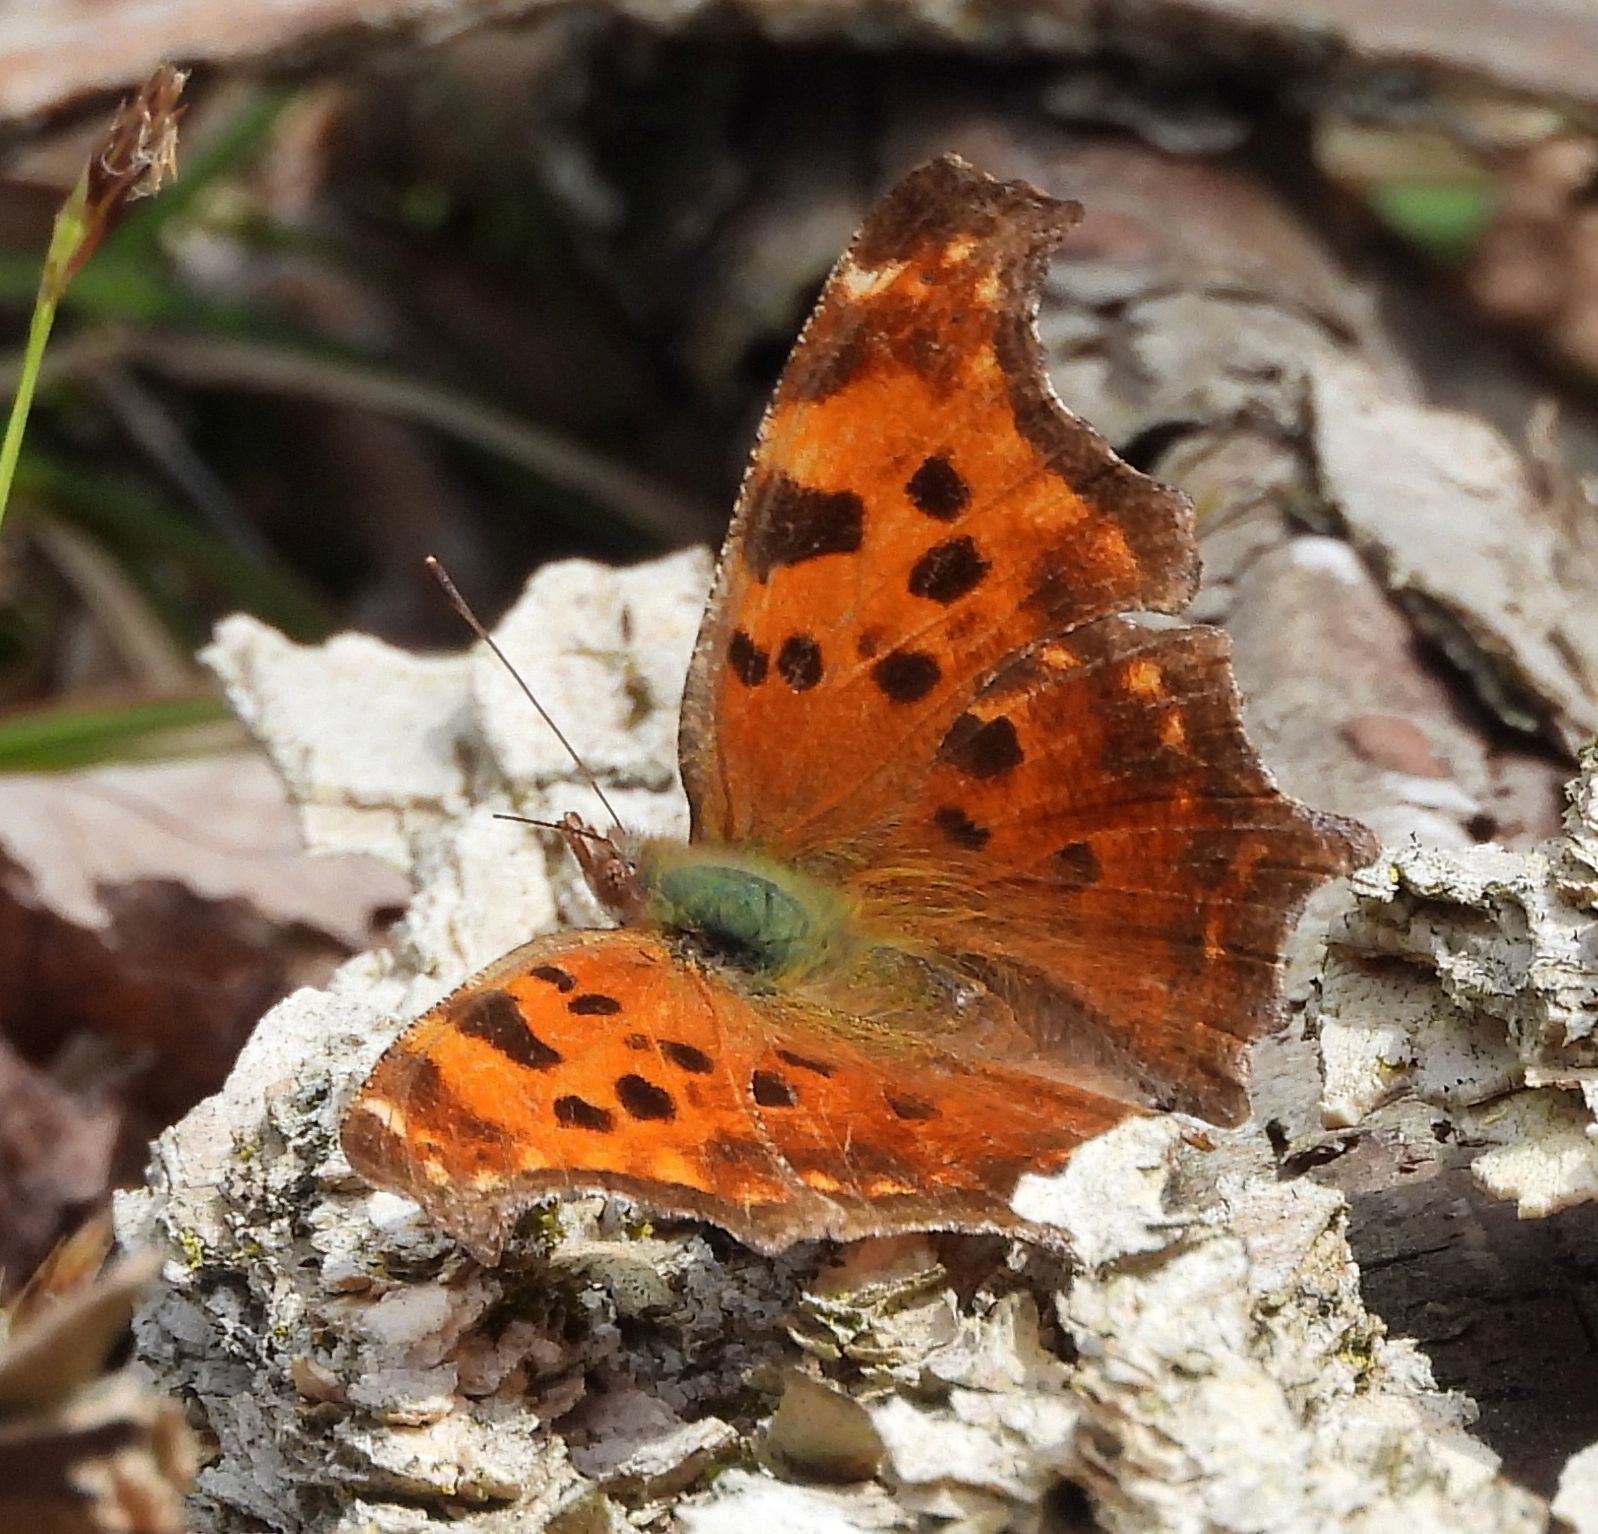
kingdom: Animalia
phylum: Arthropoda
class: Insecta
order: Lepidoptera
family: Nymphalidae
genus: Polygonia
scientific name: Polygonia comma
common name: Eastern comma
